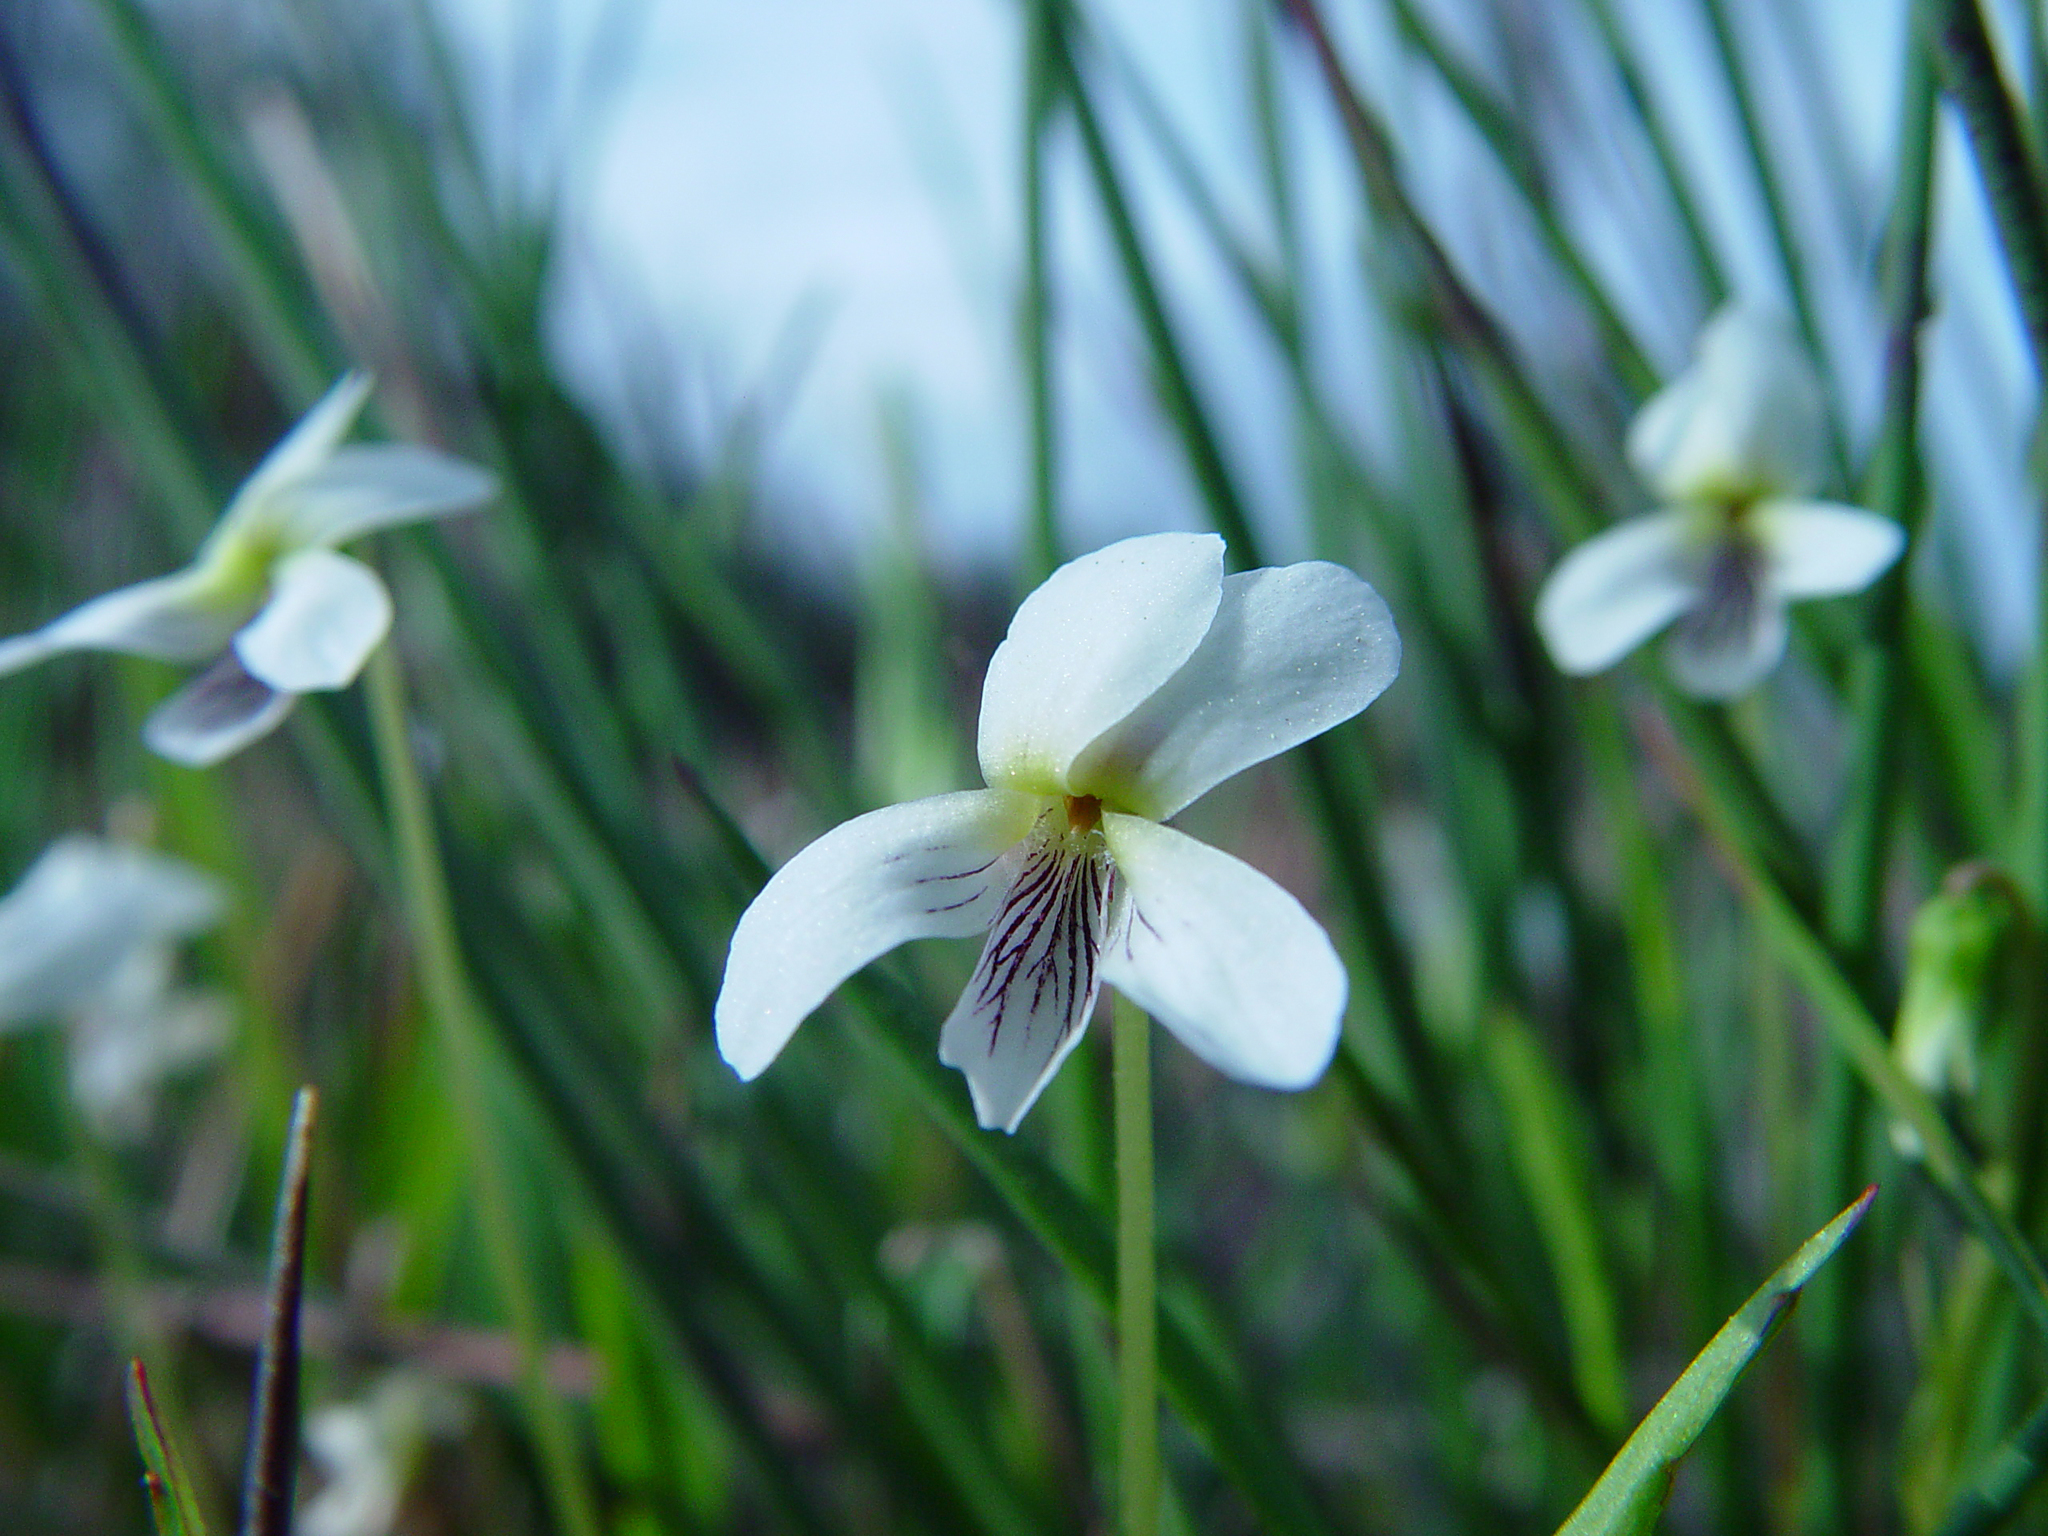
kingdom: Plantae
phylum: Tracheophyta
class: Magnoliopsida
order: Malpighiales
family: Violaceae
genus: Viola
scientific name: Viola lanceolata
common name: Bog white violet
